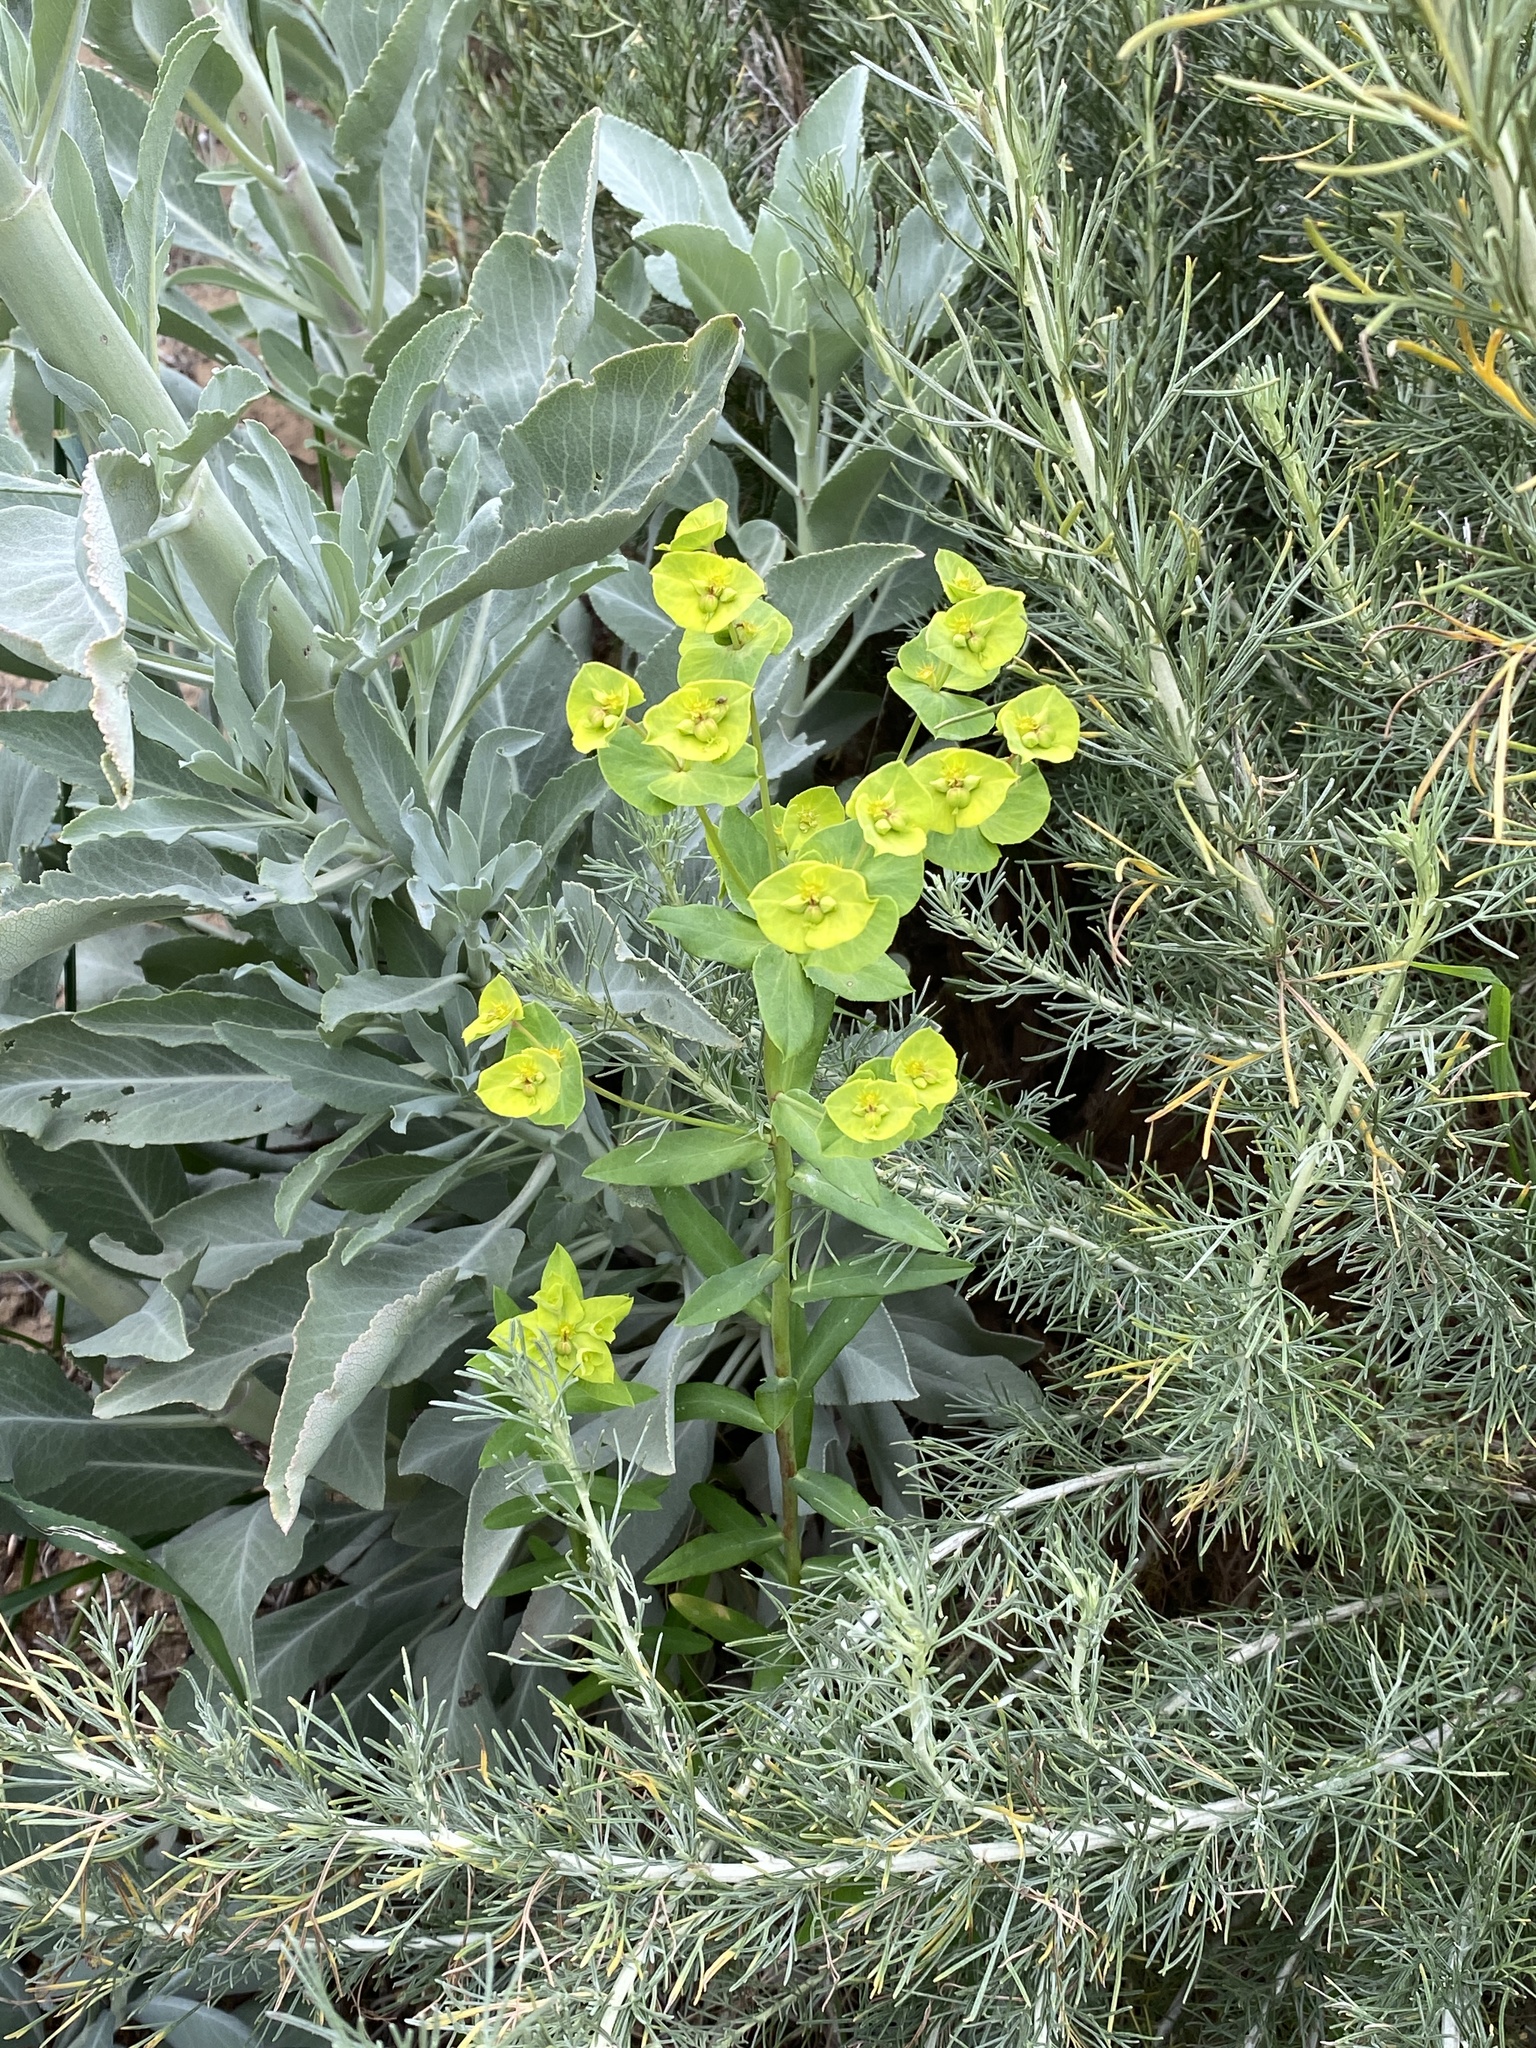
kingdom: Plantae
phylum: Tracheophyta
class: Magnoliopsida
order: Malpighiales
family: Euphorbiaceae
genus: Euphorbia
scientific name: Euphorbia terracina
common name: Geraldton carnation weed
